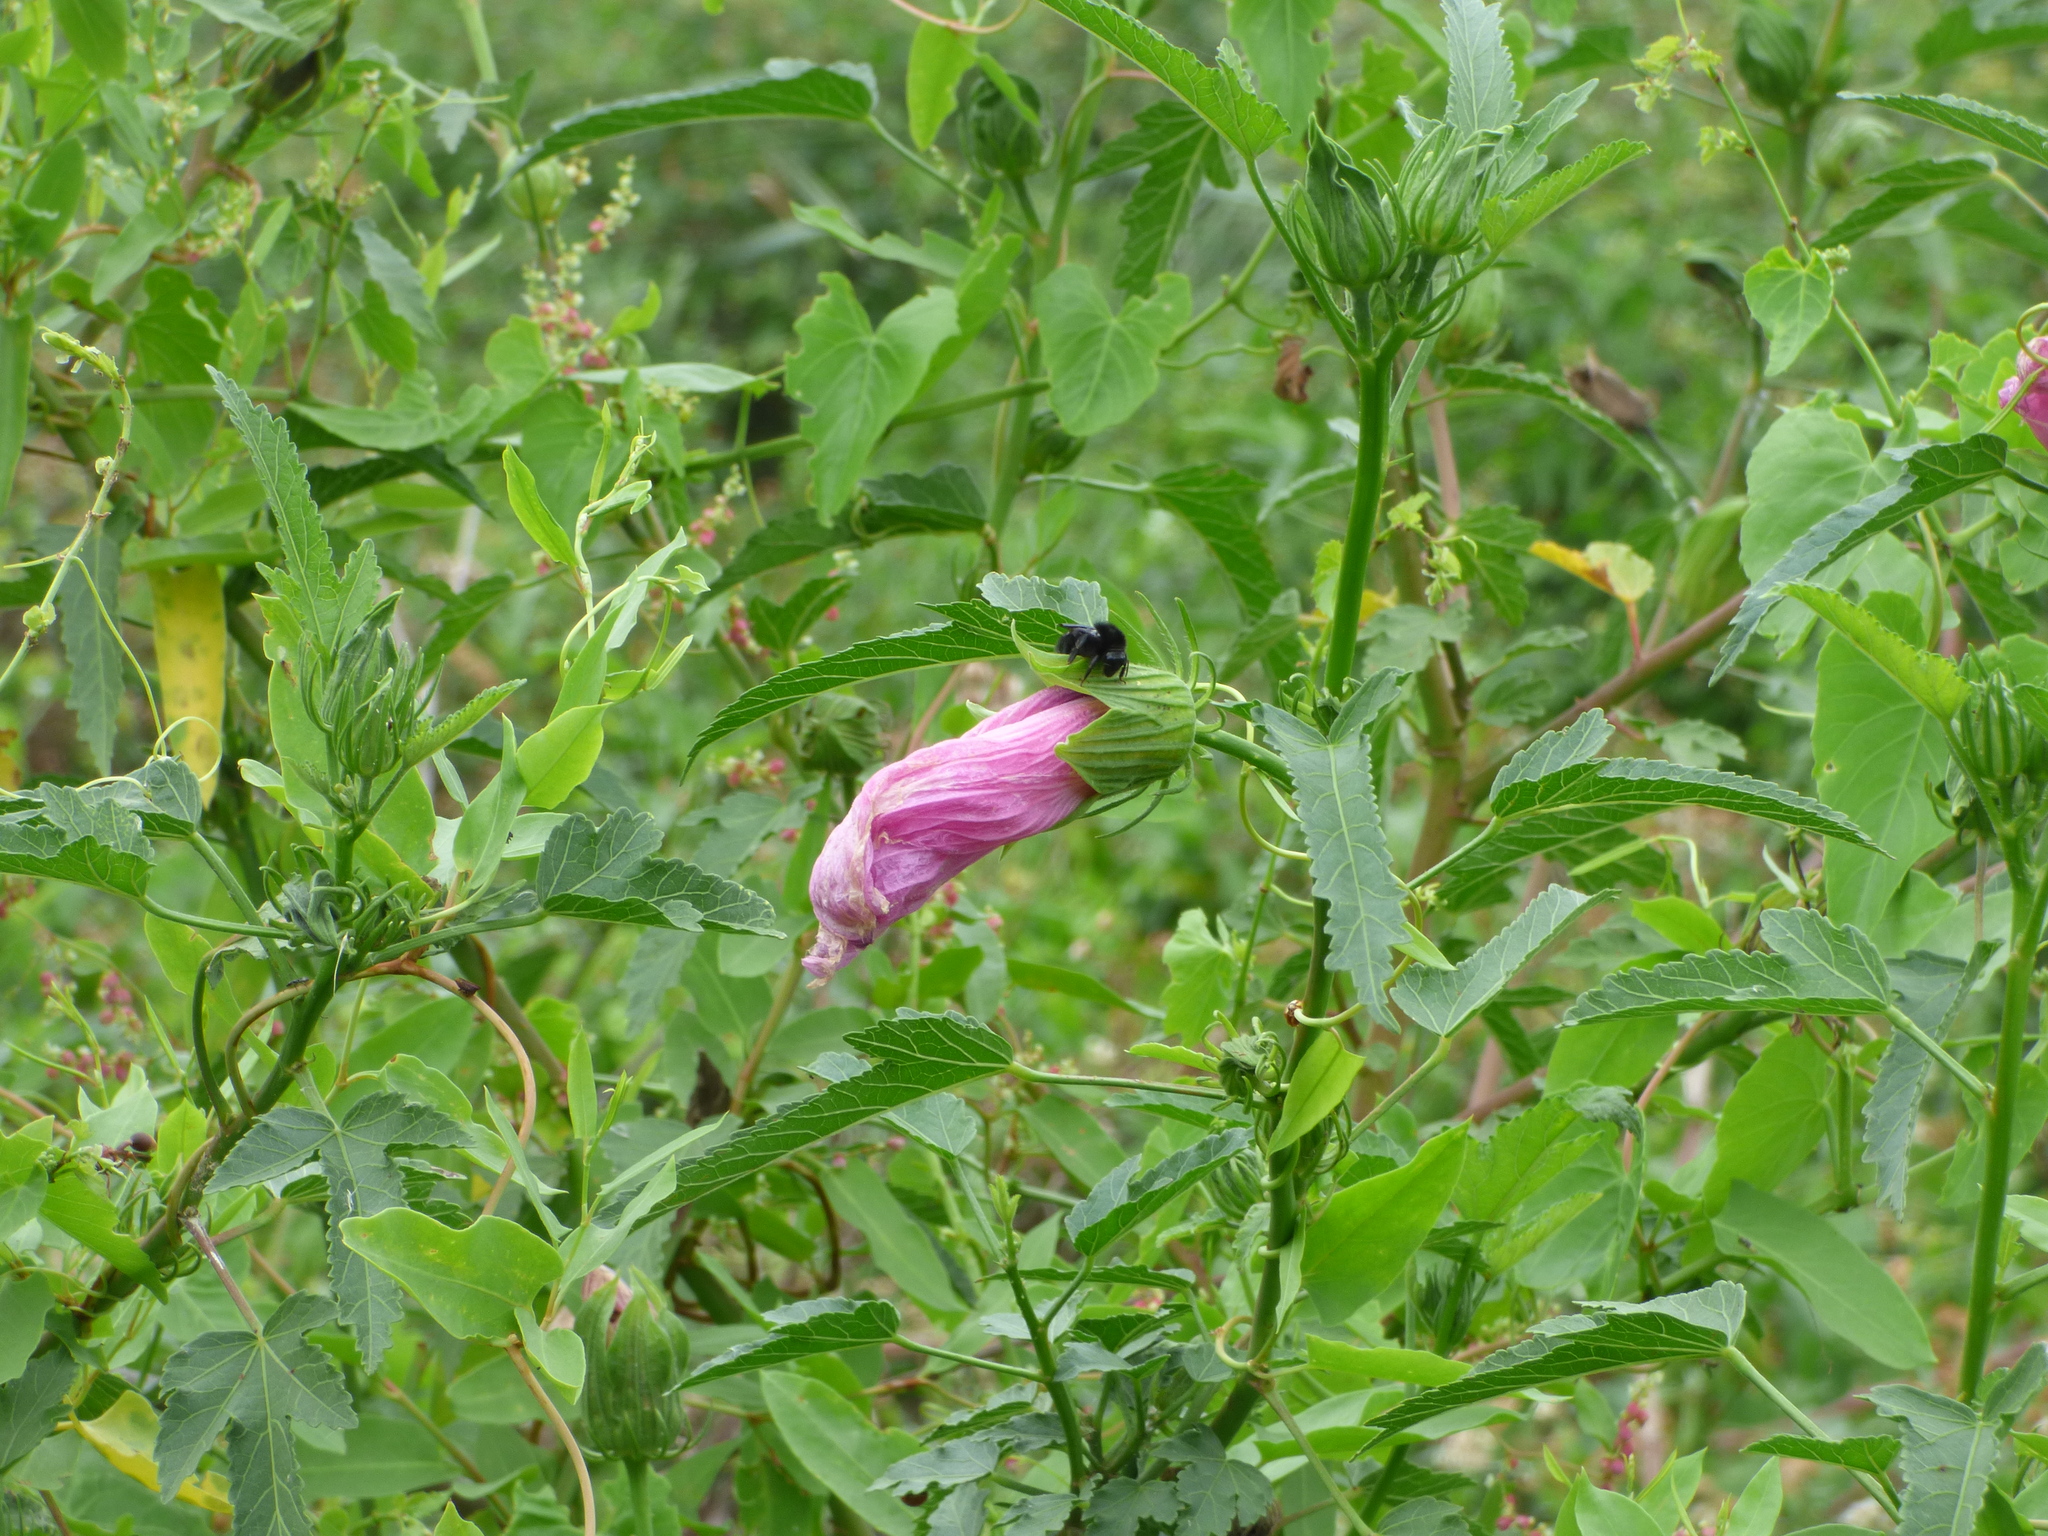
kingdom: Plantae
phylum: Tracheophyta
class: Magnoliopsida
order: Malvales
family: Malvaceae
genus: Hibiscus
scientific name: Hibiscus striatus
